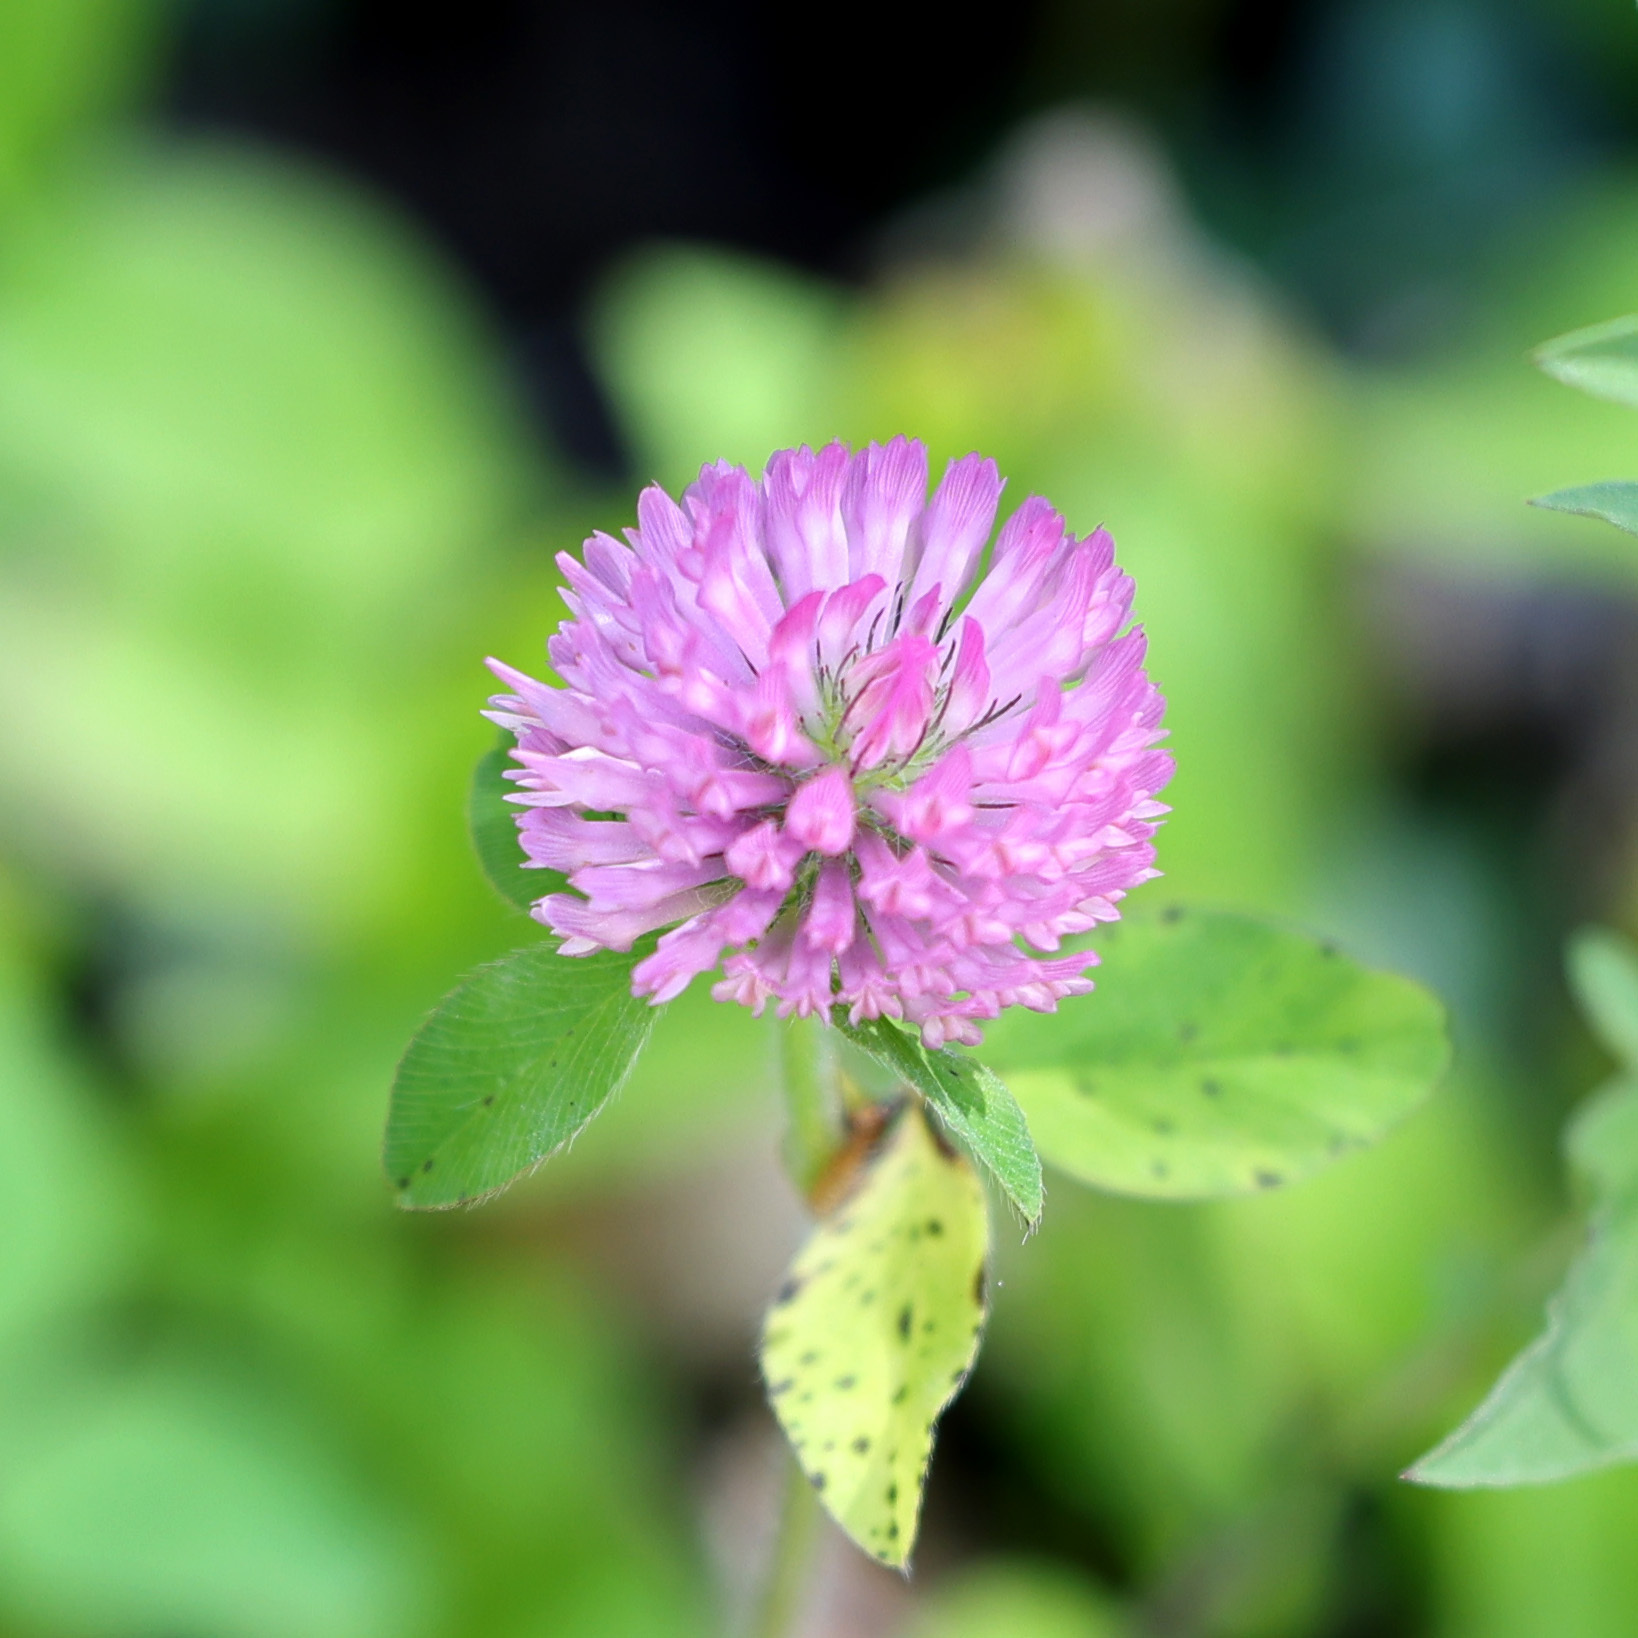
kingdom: Plantae
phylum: Tracheophyta
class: Magnoliopsida
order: Fabales
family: Fabaceae
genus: Trifolium
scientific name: Trifolium pratense
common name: Red clover
